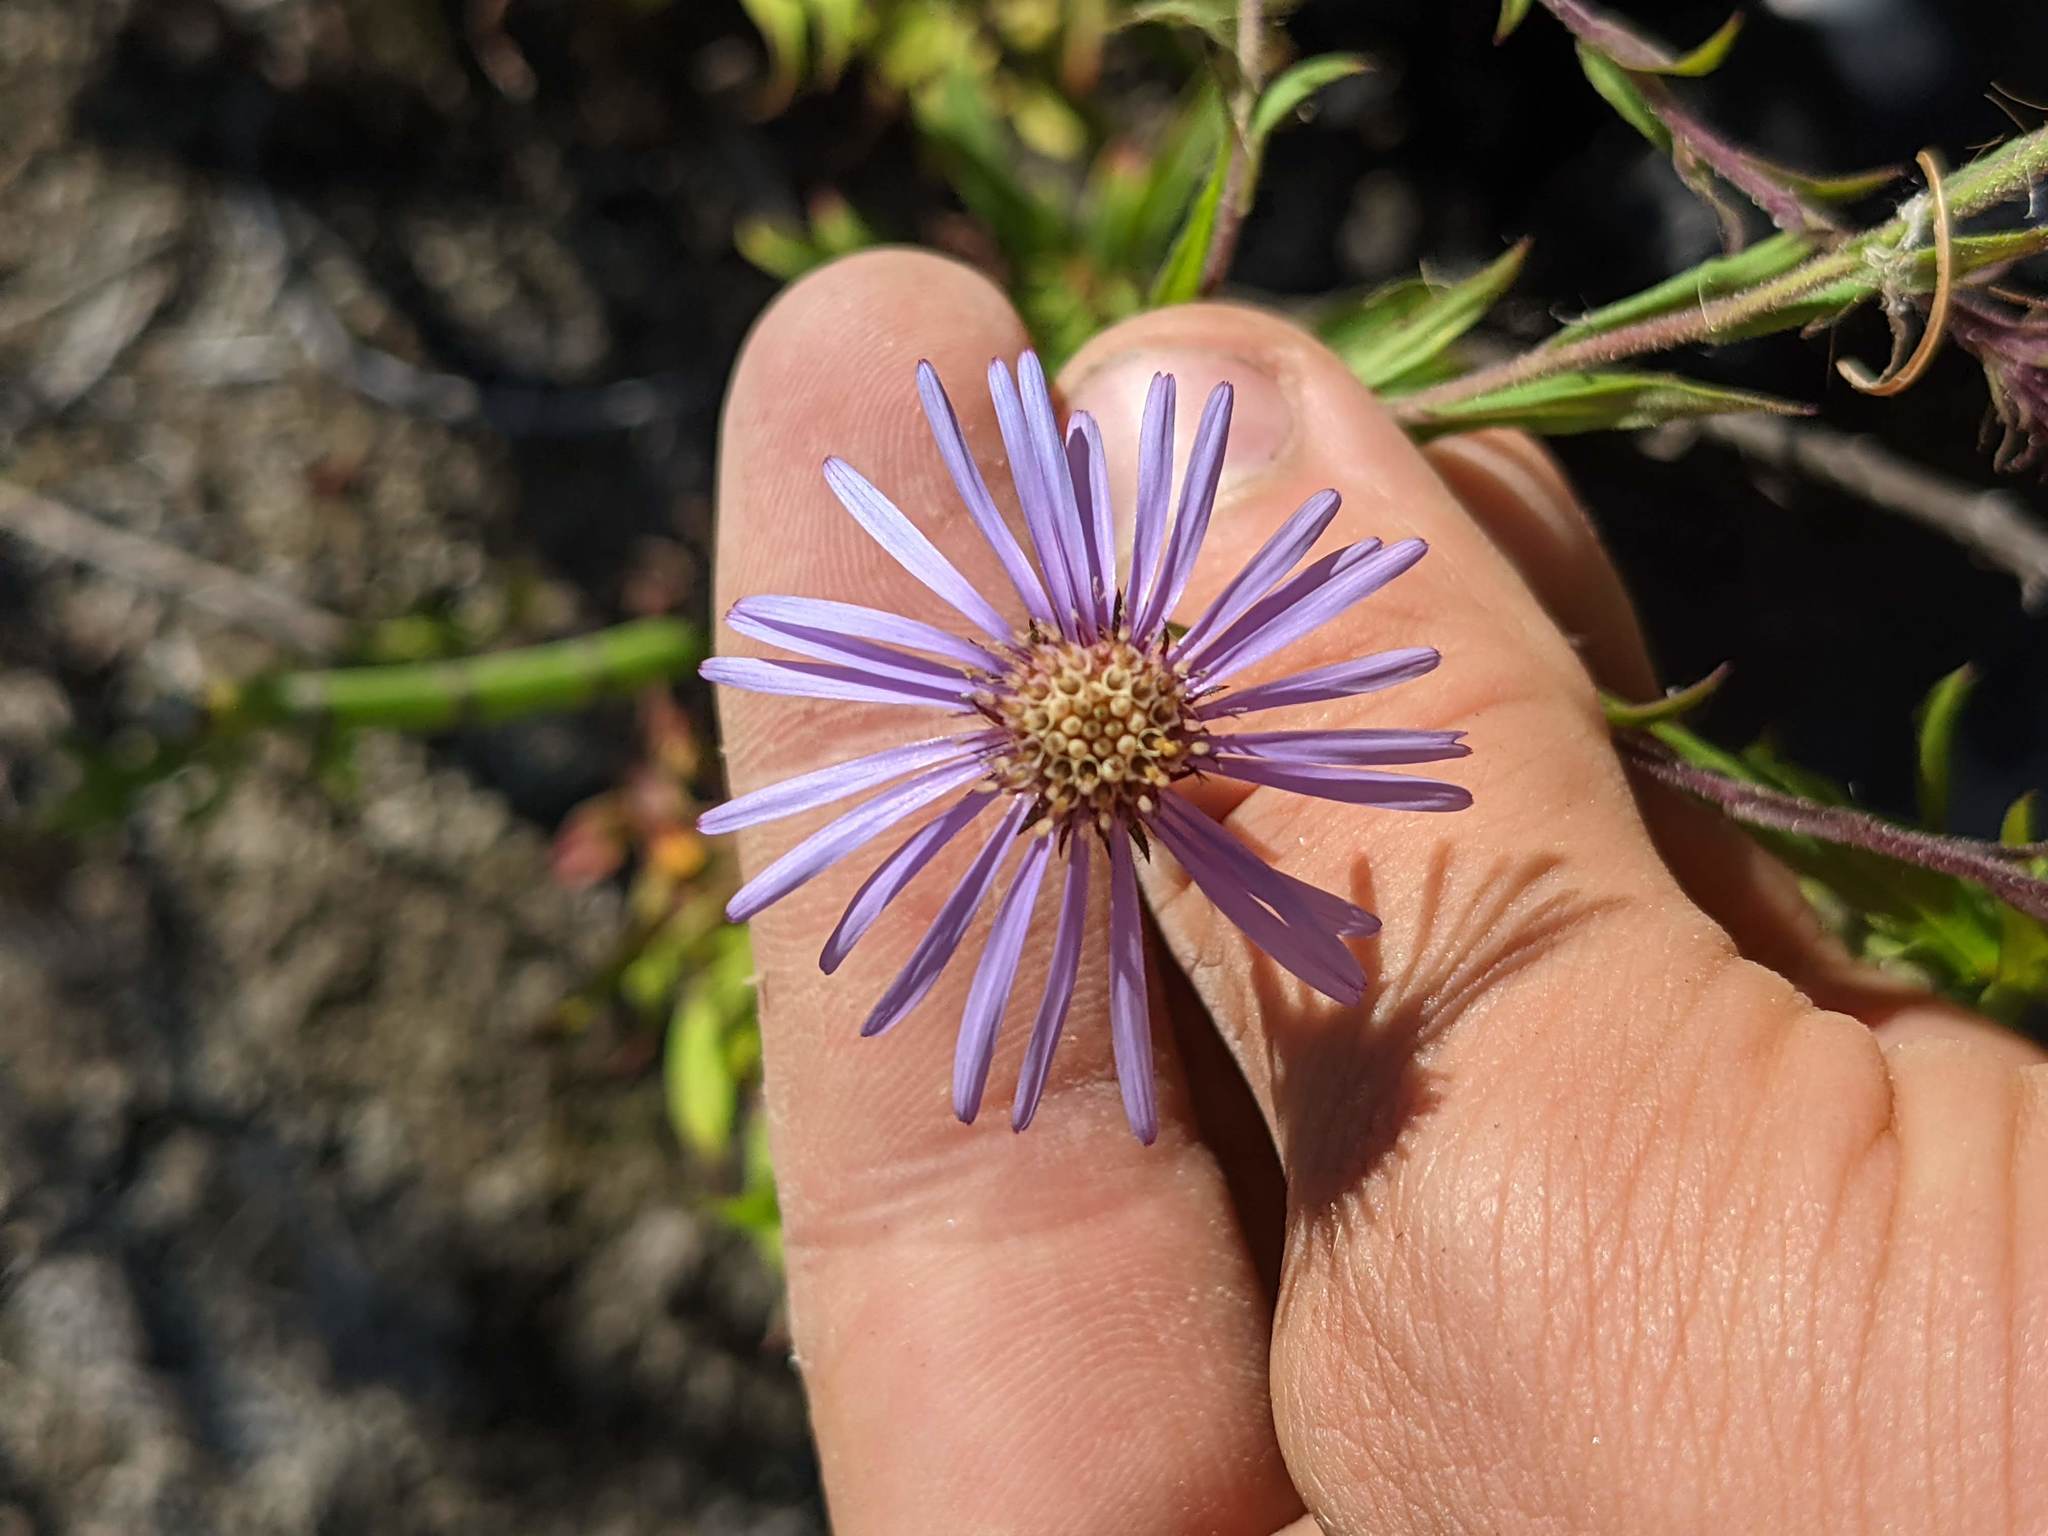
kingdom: Plantae
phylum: Tracheophyta
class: Magnoliopsida
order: Asterales
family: Asteraceae
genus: Canadanthus
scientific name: Canadanthus modestus
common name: Great northern aster
